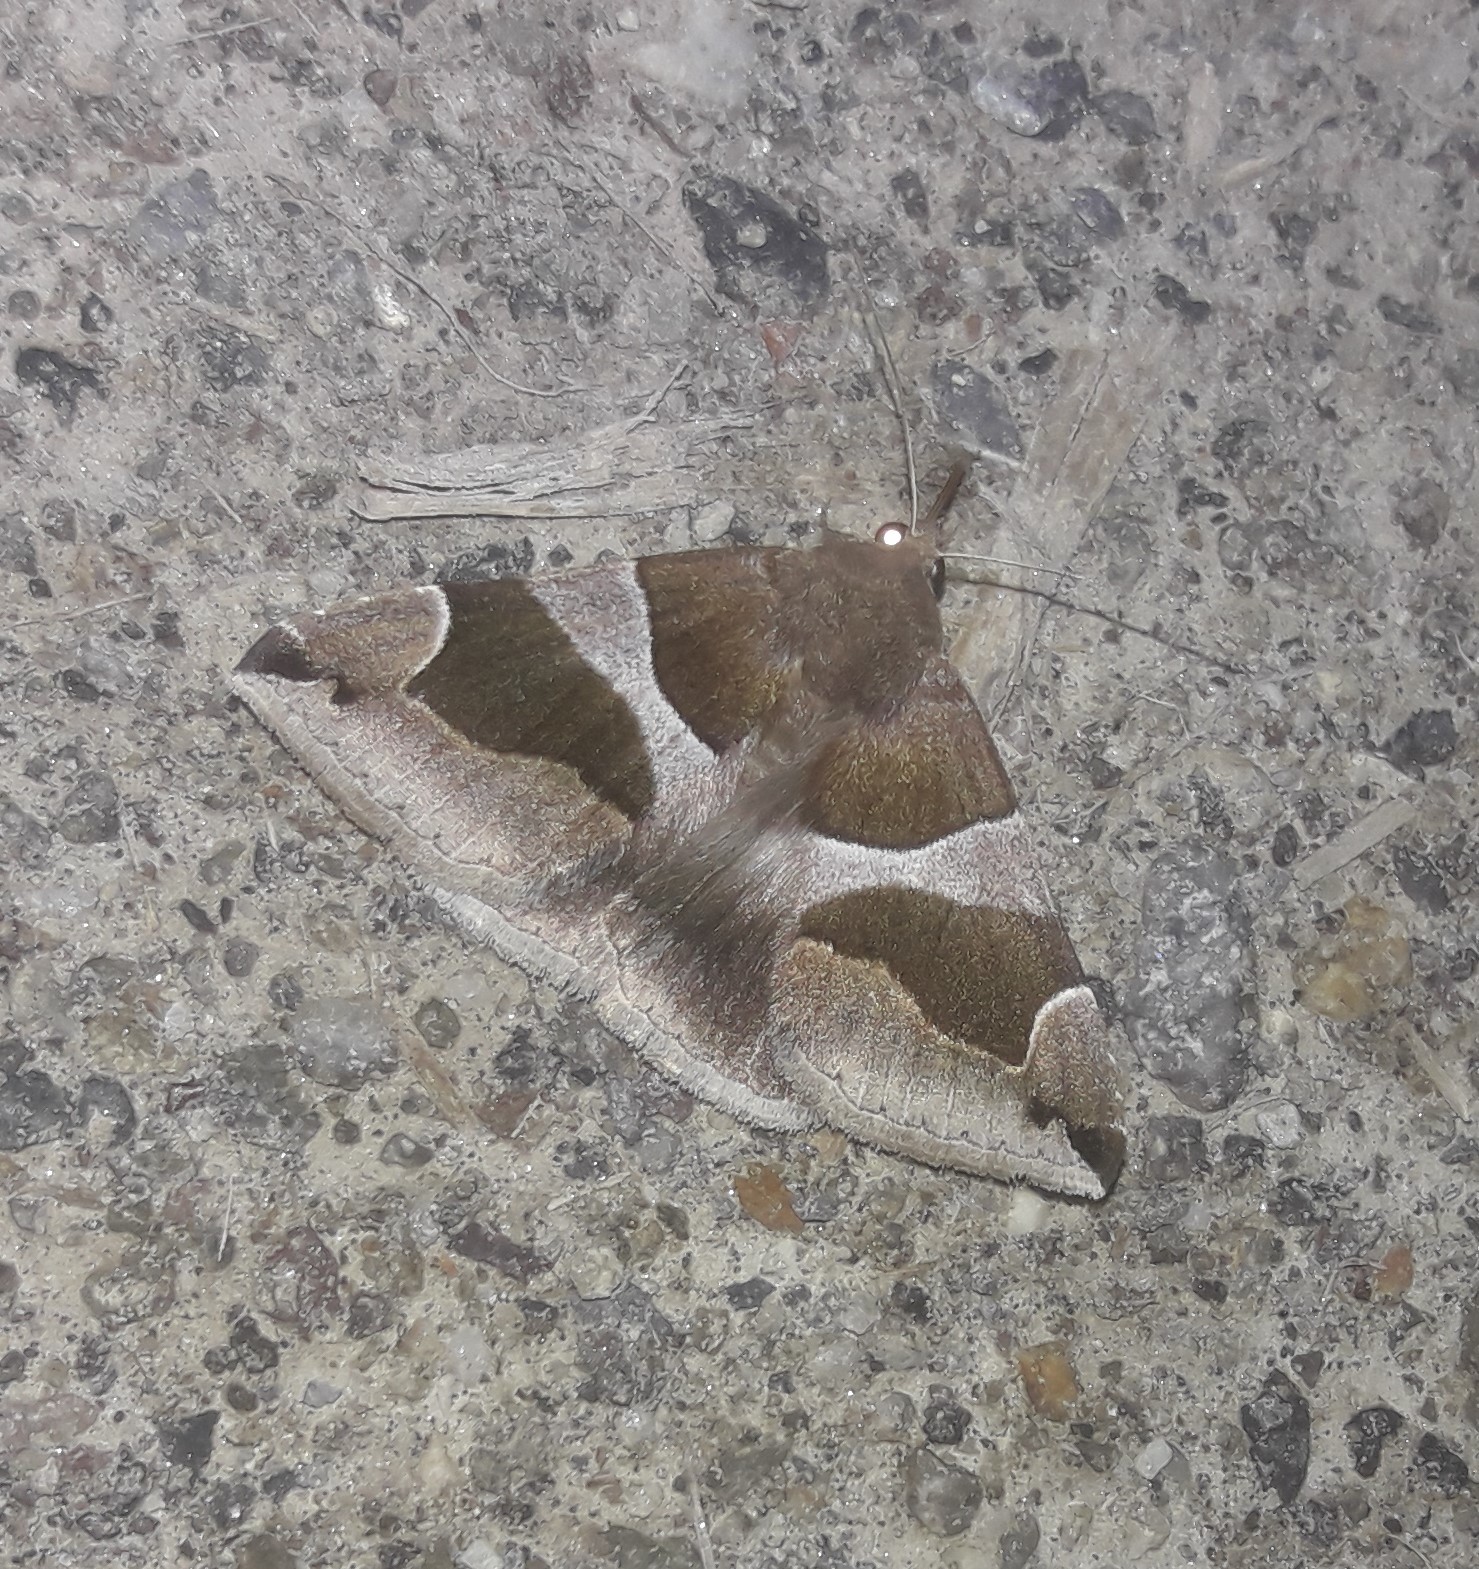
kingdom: Animalia
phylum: Arthropoda
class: Insecta
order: Lepidoptera
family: Erebidae
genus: Dysgonia
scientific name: Dysgonia algira
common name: Passenger
